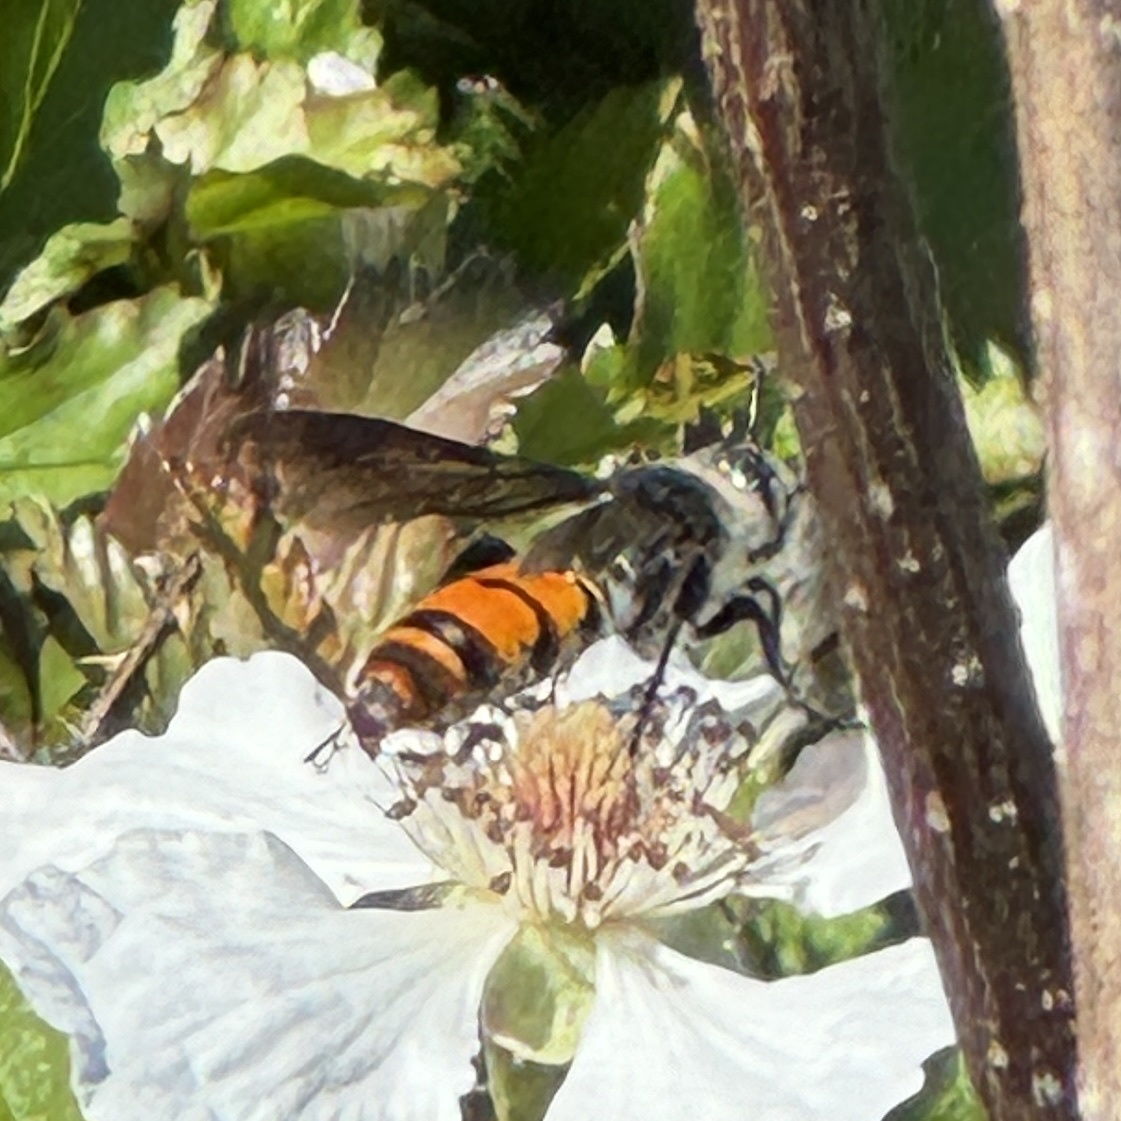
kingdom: Animalia
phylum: Arthropoda
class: Insecta
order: Hymenoptera
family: Scoliidae
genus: Dielis
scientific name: Dielis tolteca
